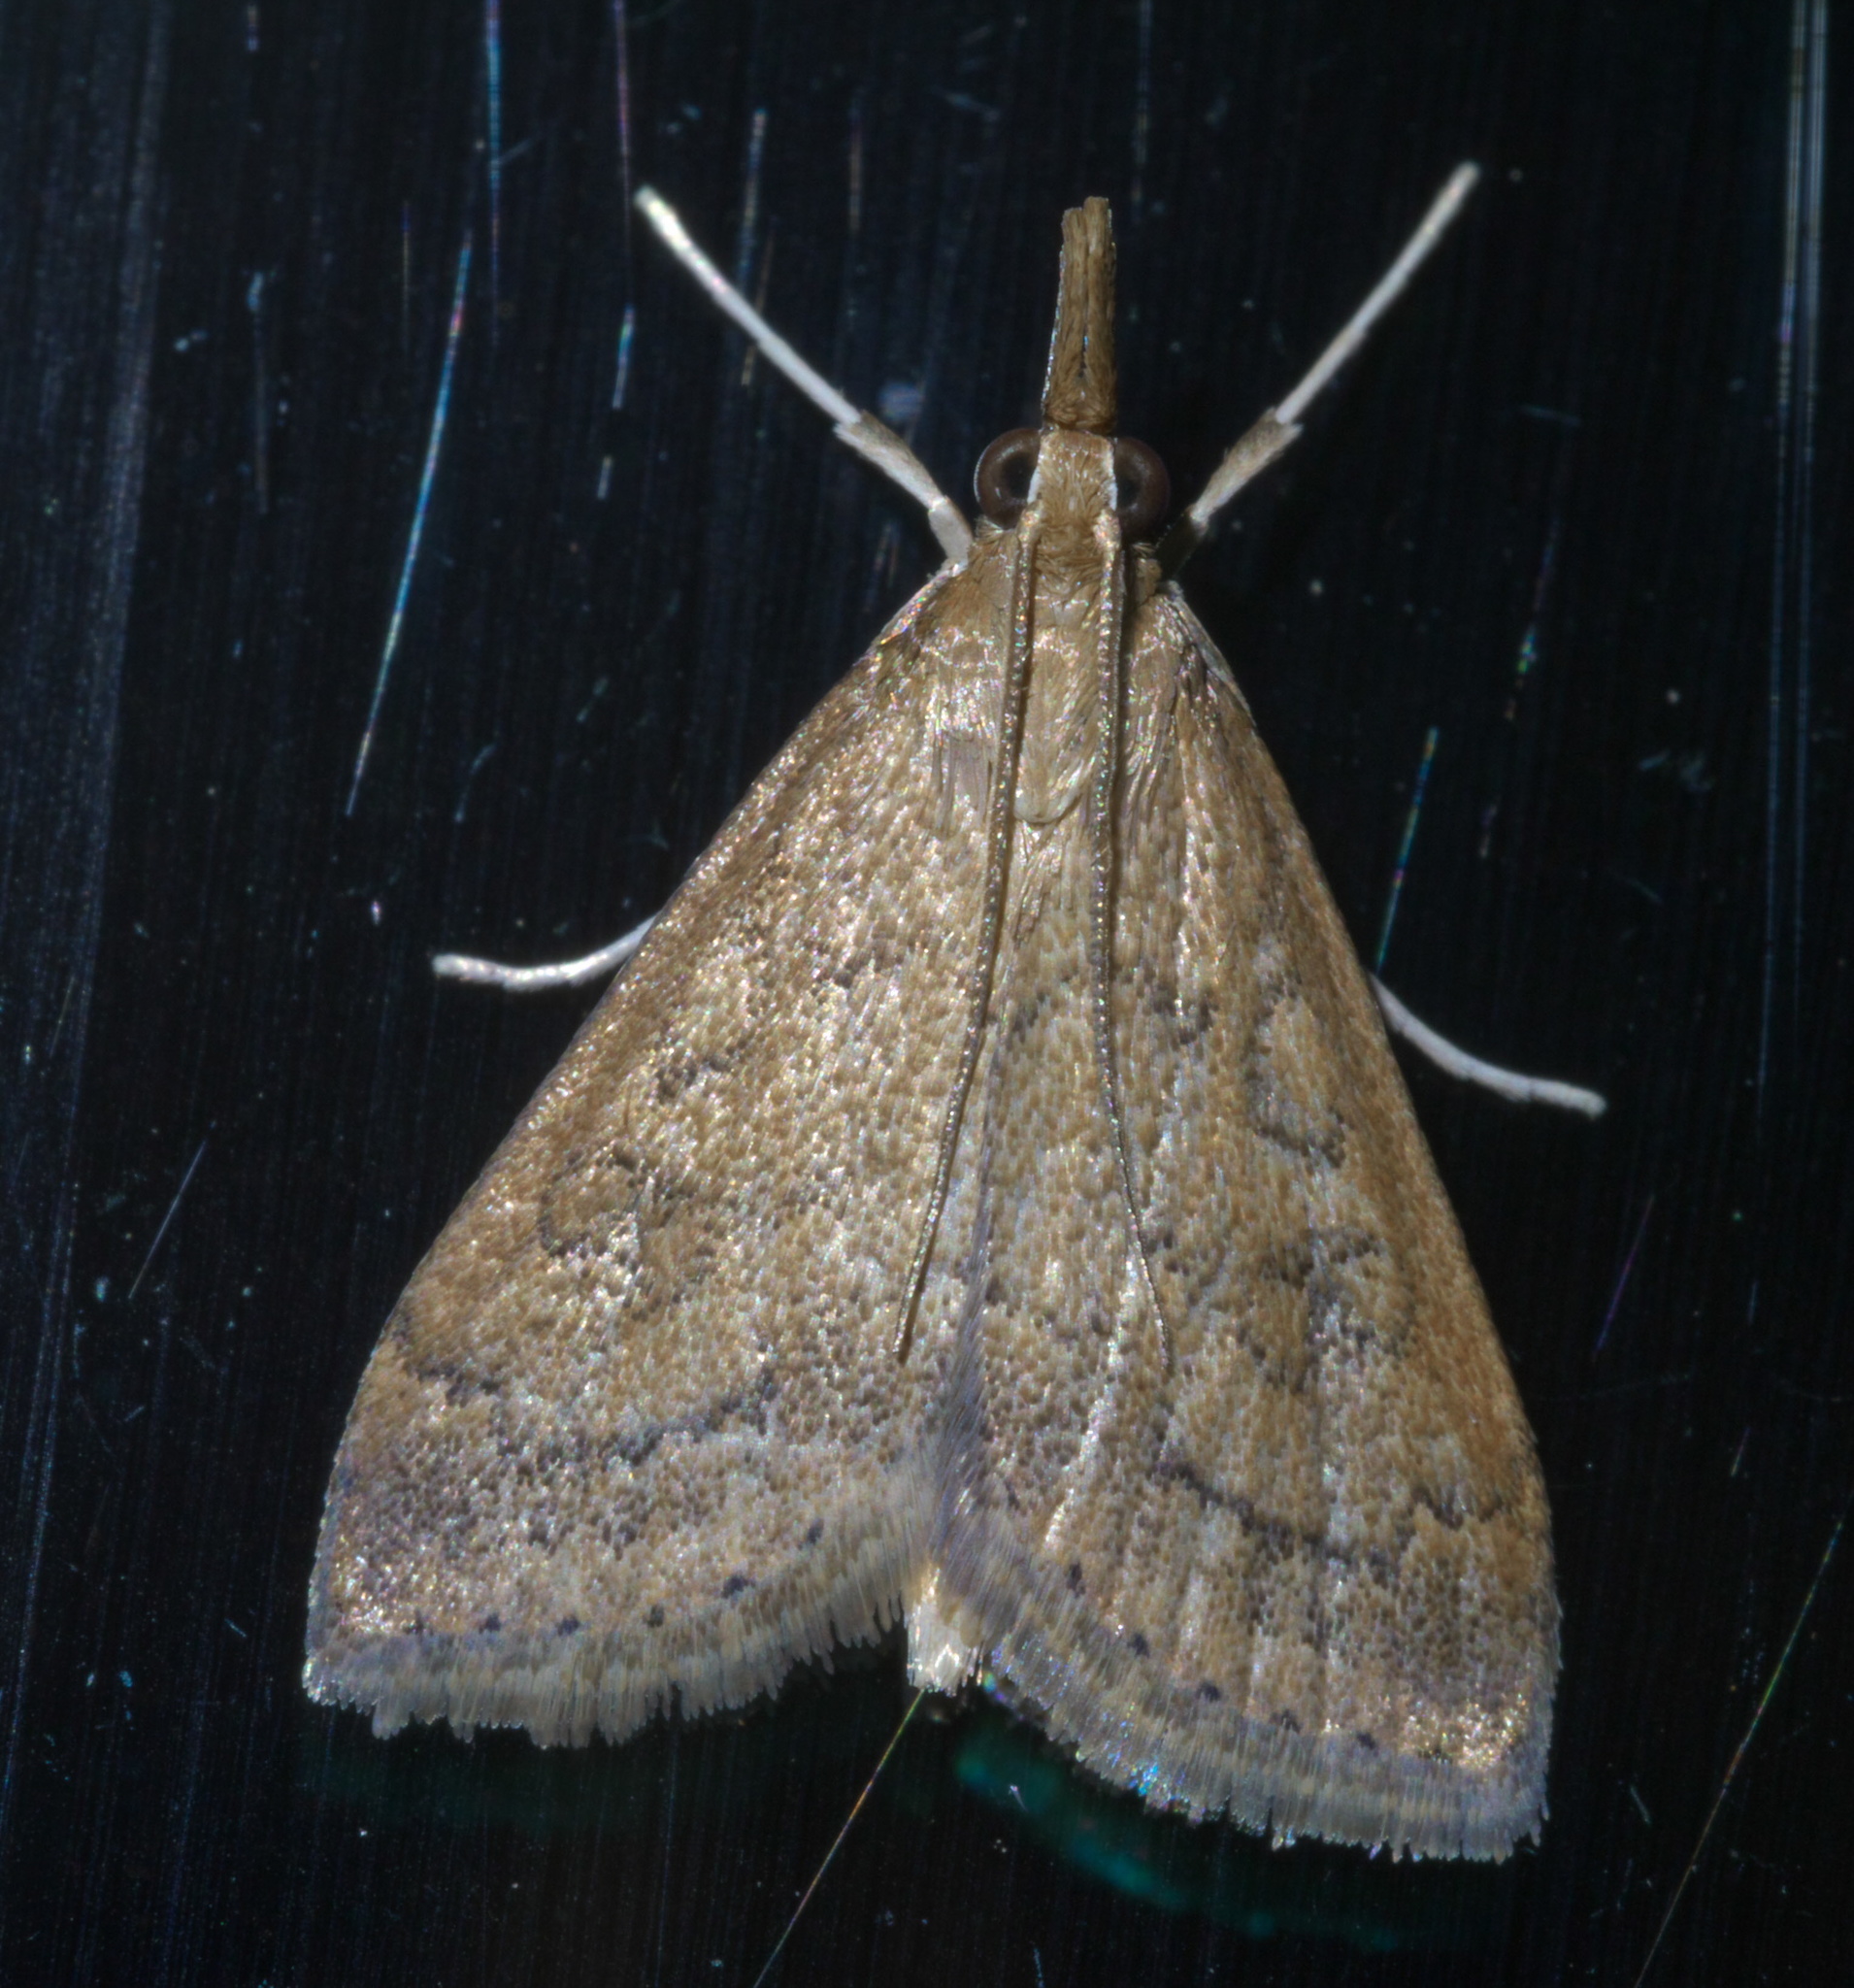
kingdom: Animalia
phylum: Arthropoda
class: Insecta
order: Lepidoptera
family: Crambidae
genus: Udea
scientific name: Udea rubigalis
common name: Celery leaftier moth
